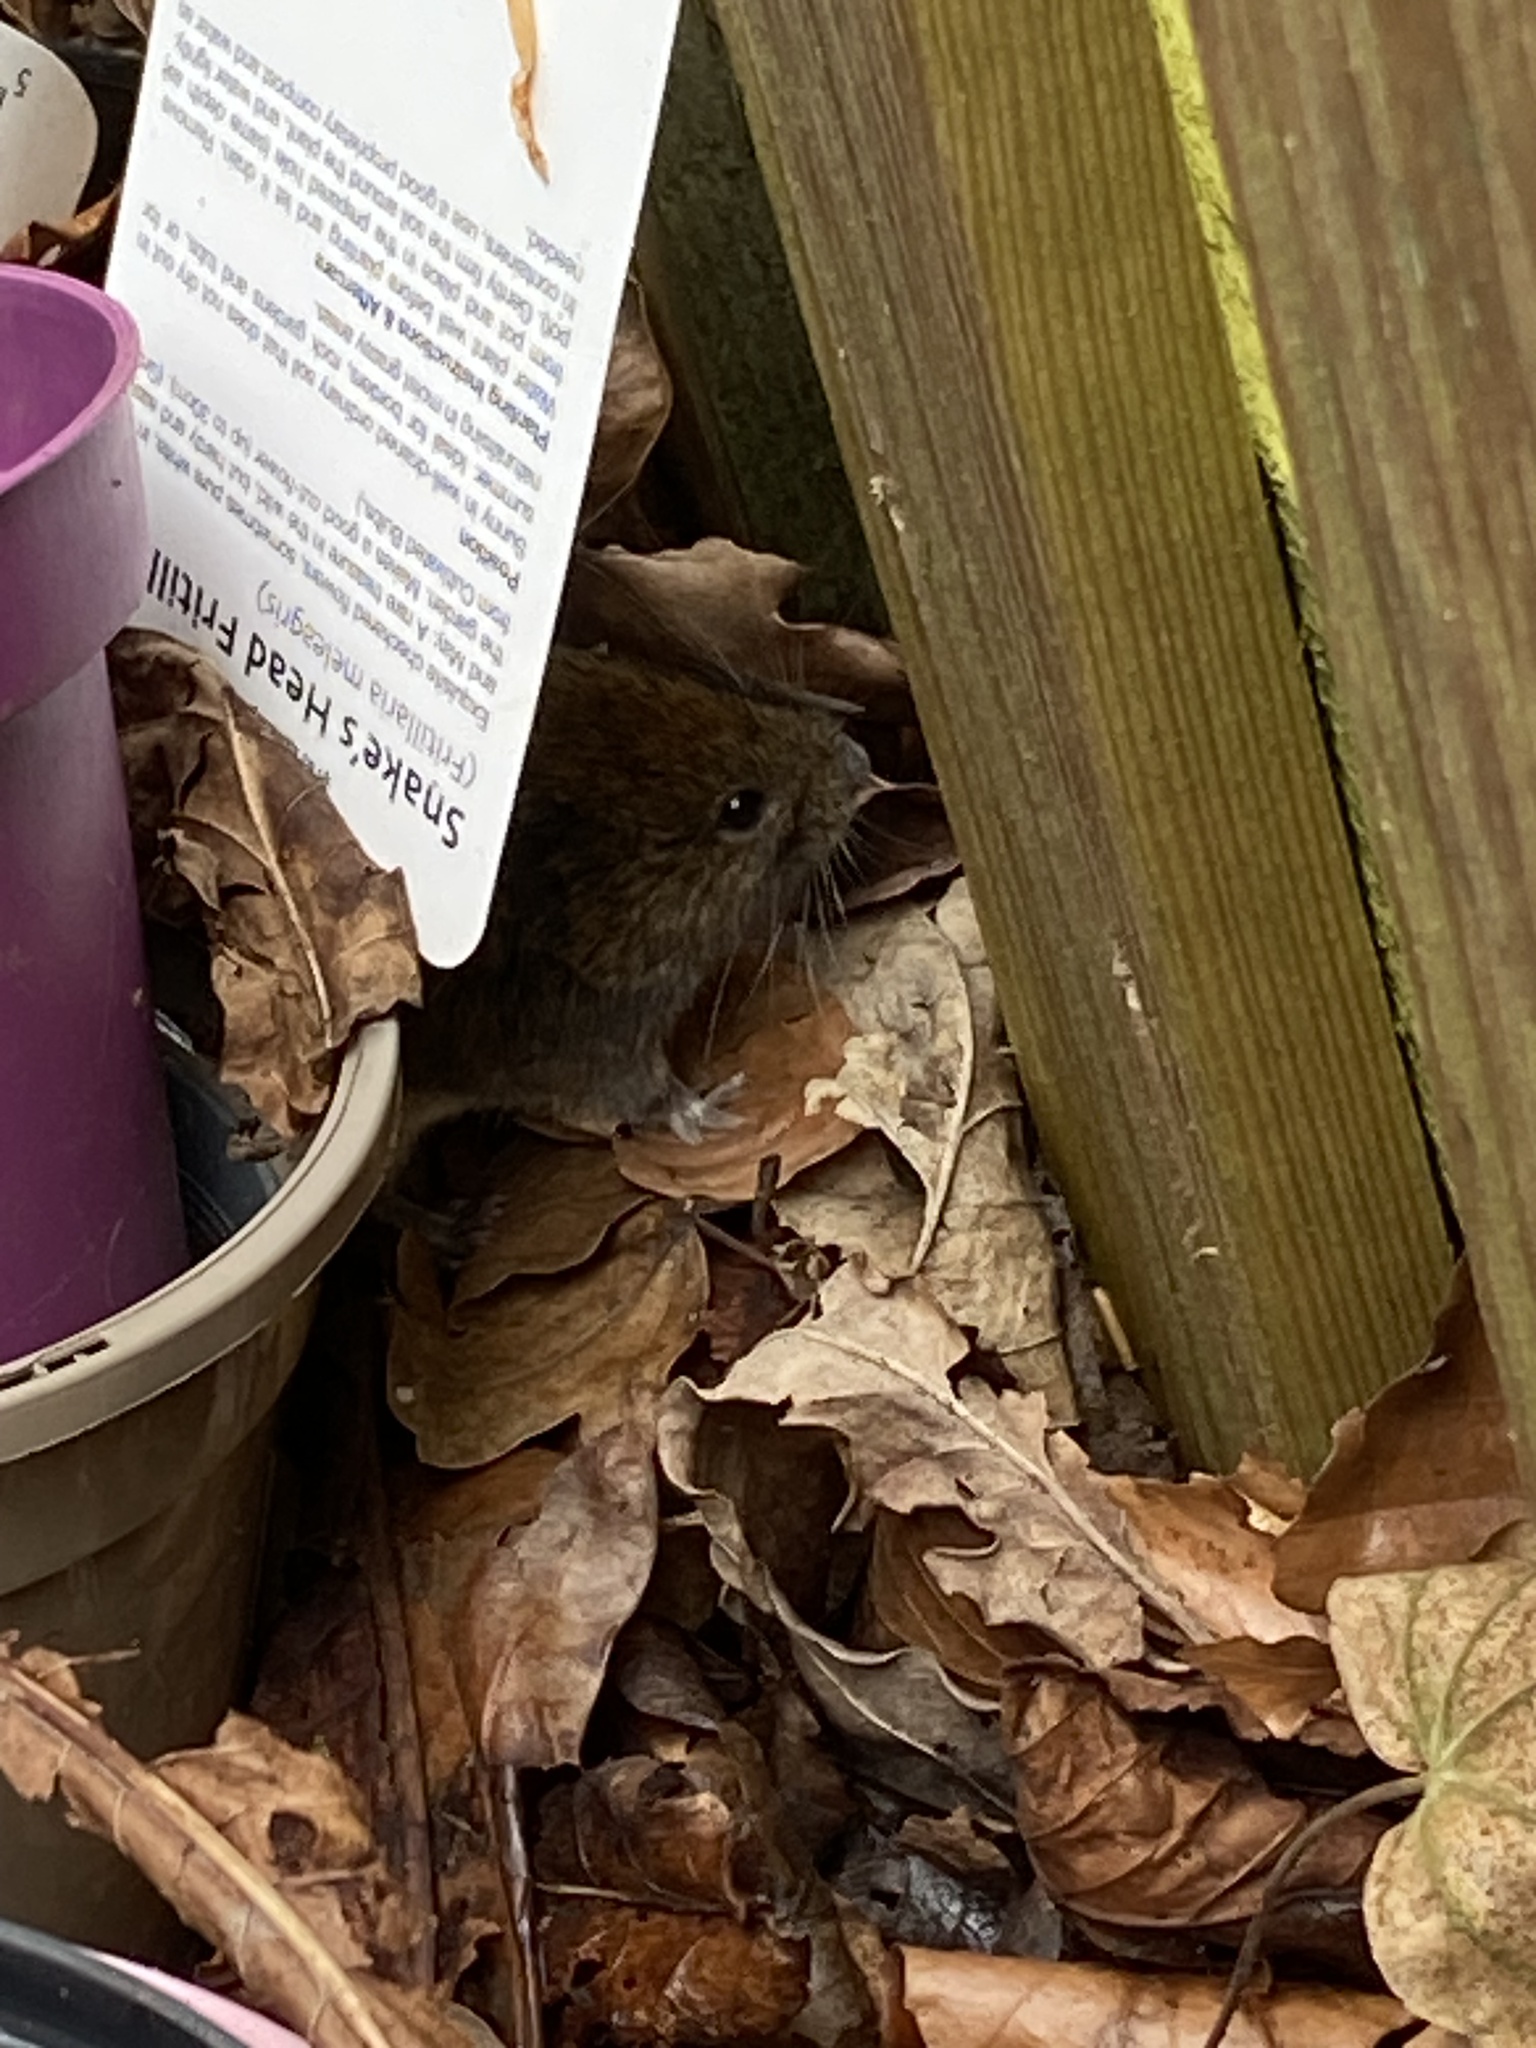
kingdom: Animalia
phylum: Chordata
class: Mammalia
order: Rodentia
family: Cricetidae
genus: Myodes
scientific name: Myodes glareolus
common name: Bank vole
